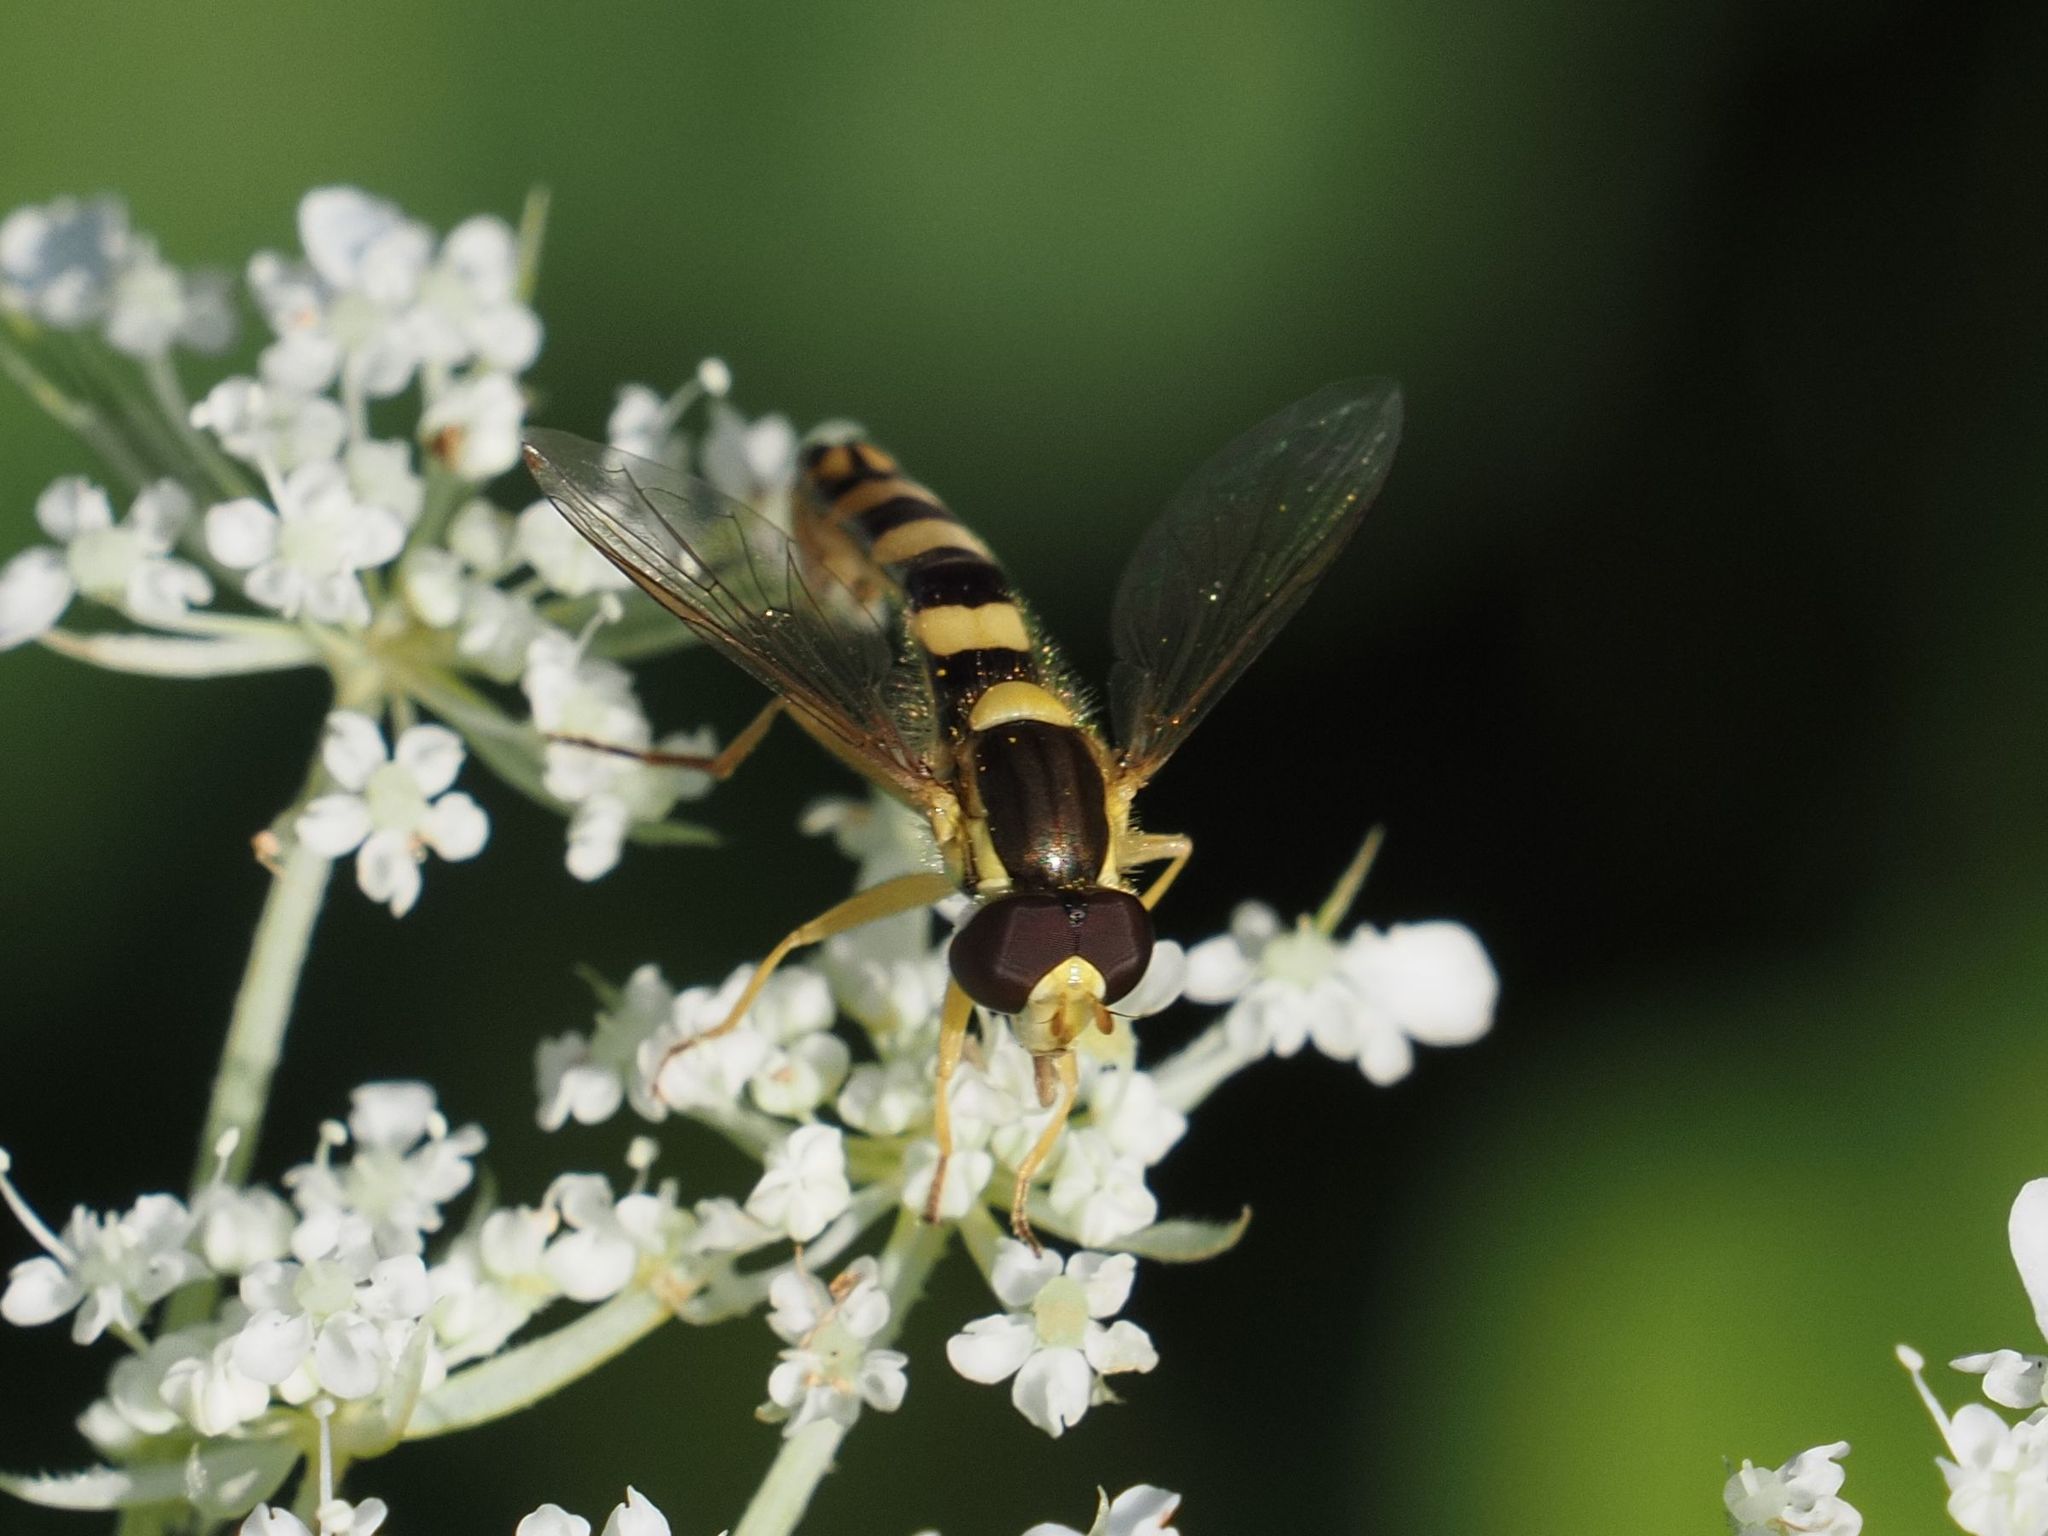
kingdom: Animalia
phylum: Arthropoda
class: Insecta
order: Diptera
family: Syrphidae
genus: Sphaerophoria
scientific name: Sphaerophoria
